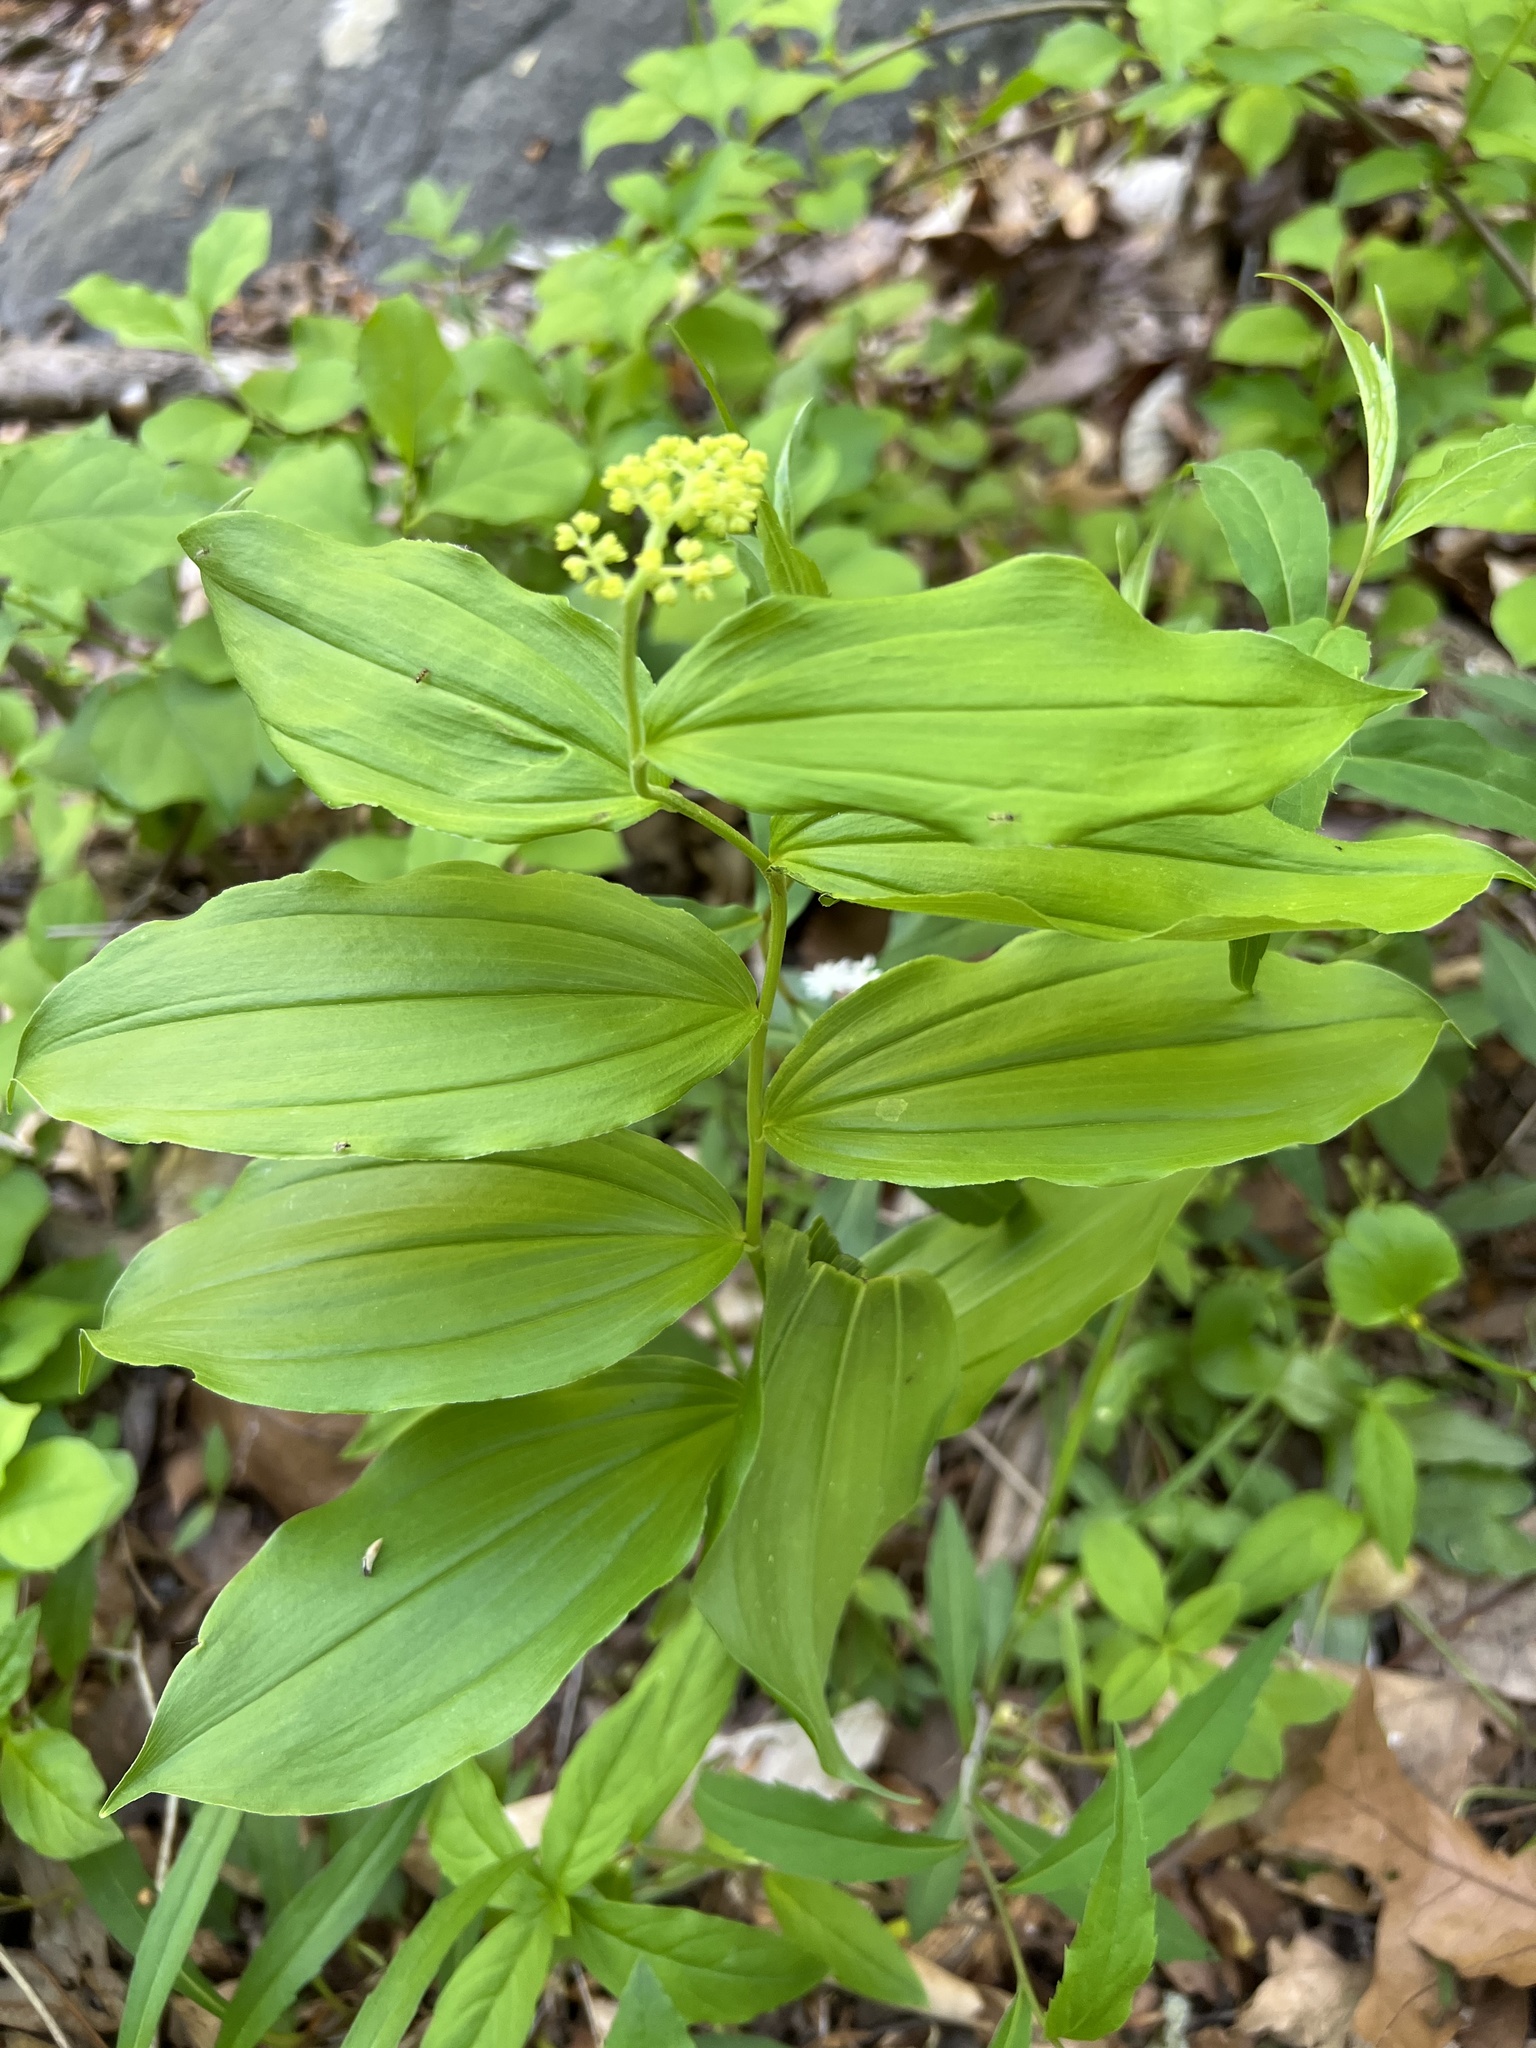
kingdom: Plantae
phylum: Tracheophyta
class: Liliopsida
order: Asparagales
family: Asparagaceae
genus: Maianthemum
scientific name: Maianthemum racemosum
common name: False spikenard
